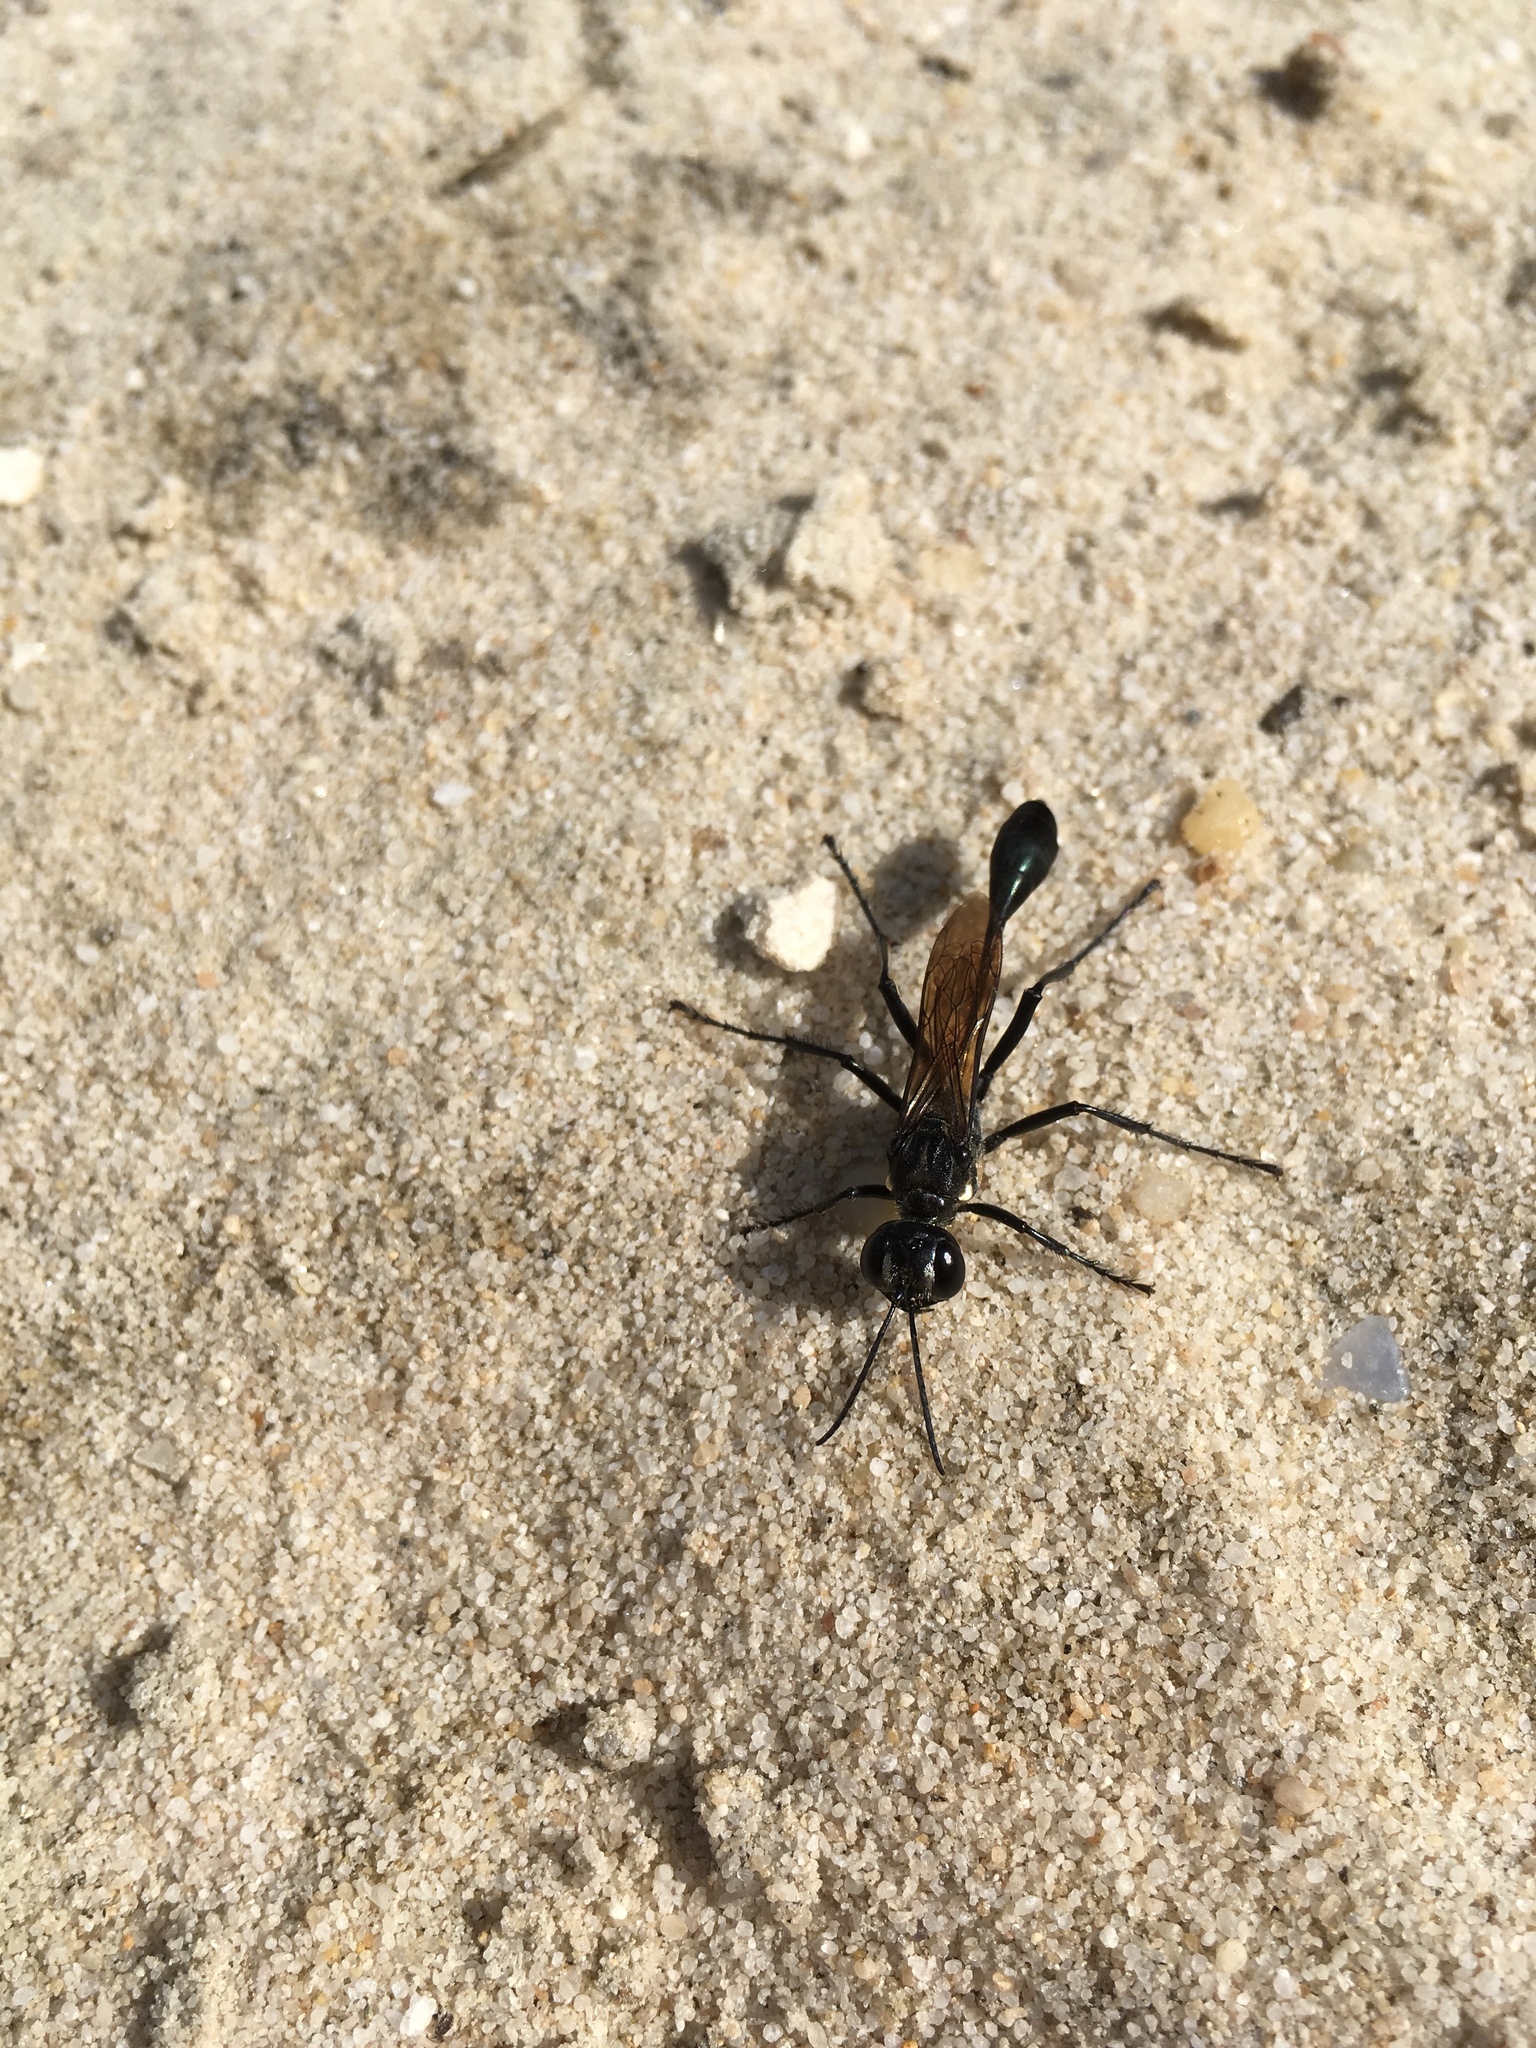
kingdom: Animalia
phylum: Arthropoda
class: Insecta
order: Hymenoptera
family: Sphecidae
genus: Eremnophila
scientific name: Eremnophila aureonotata
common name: Gold-marked thread-waisted wasp
